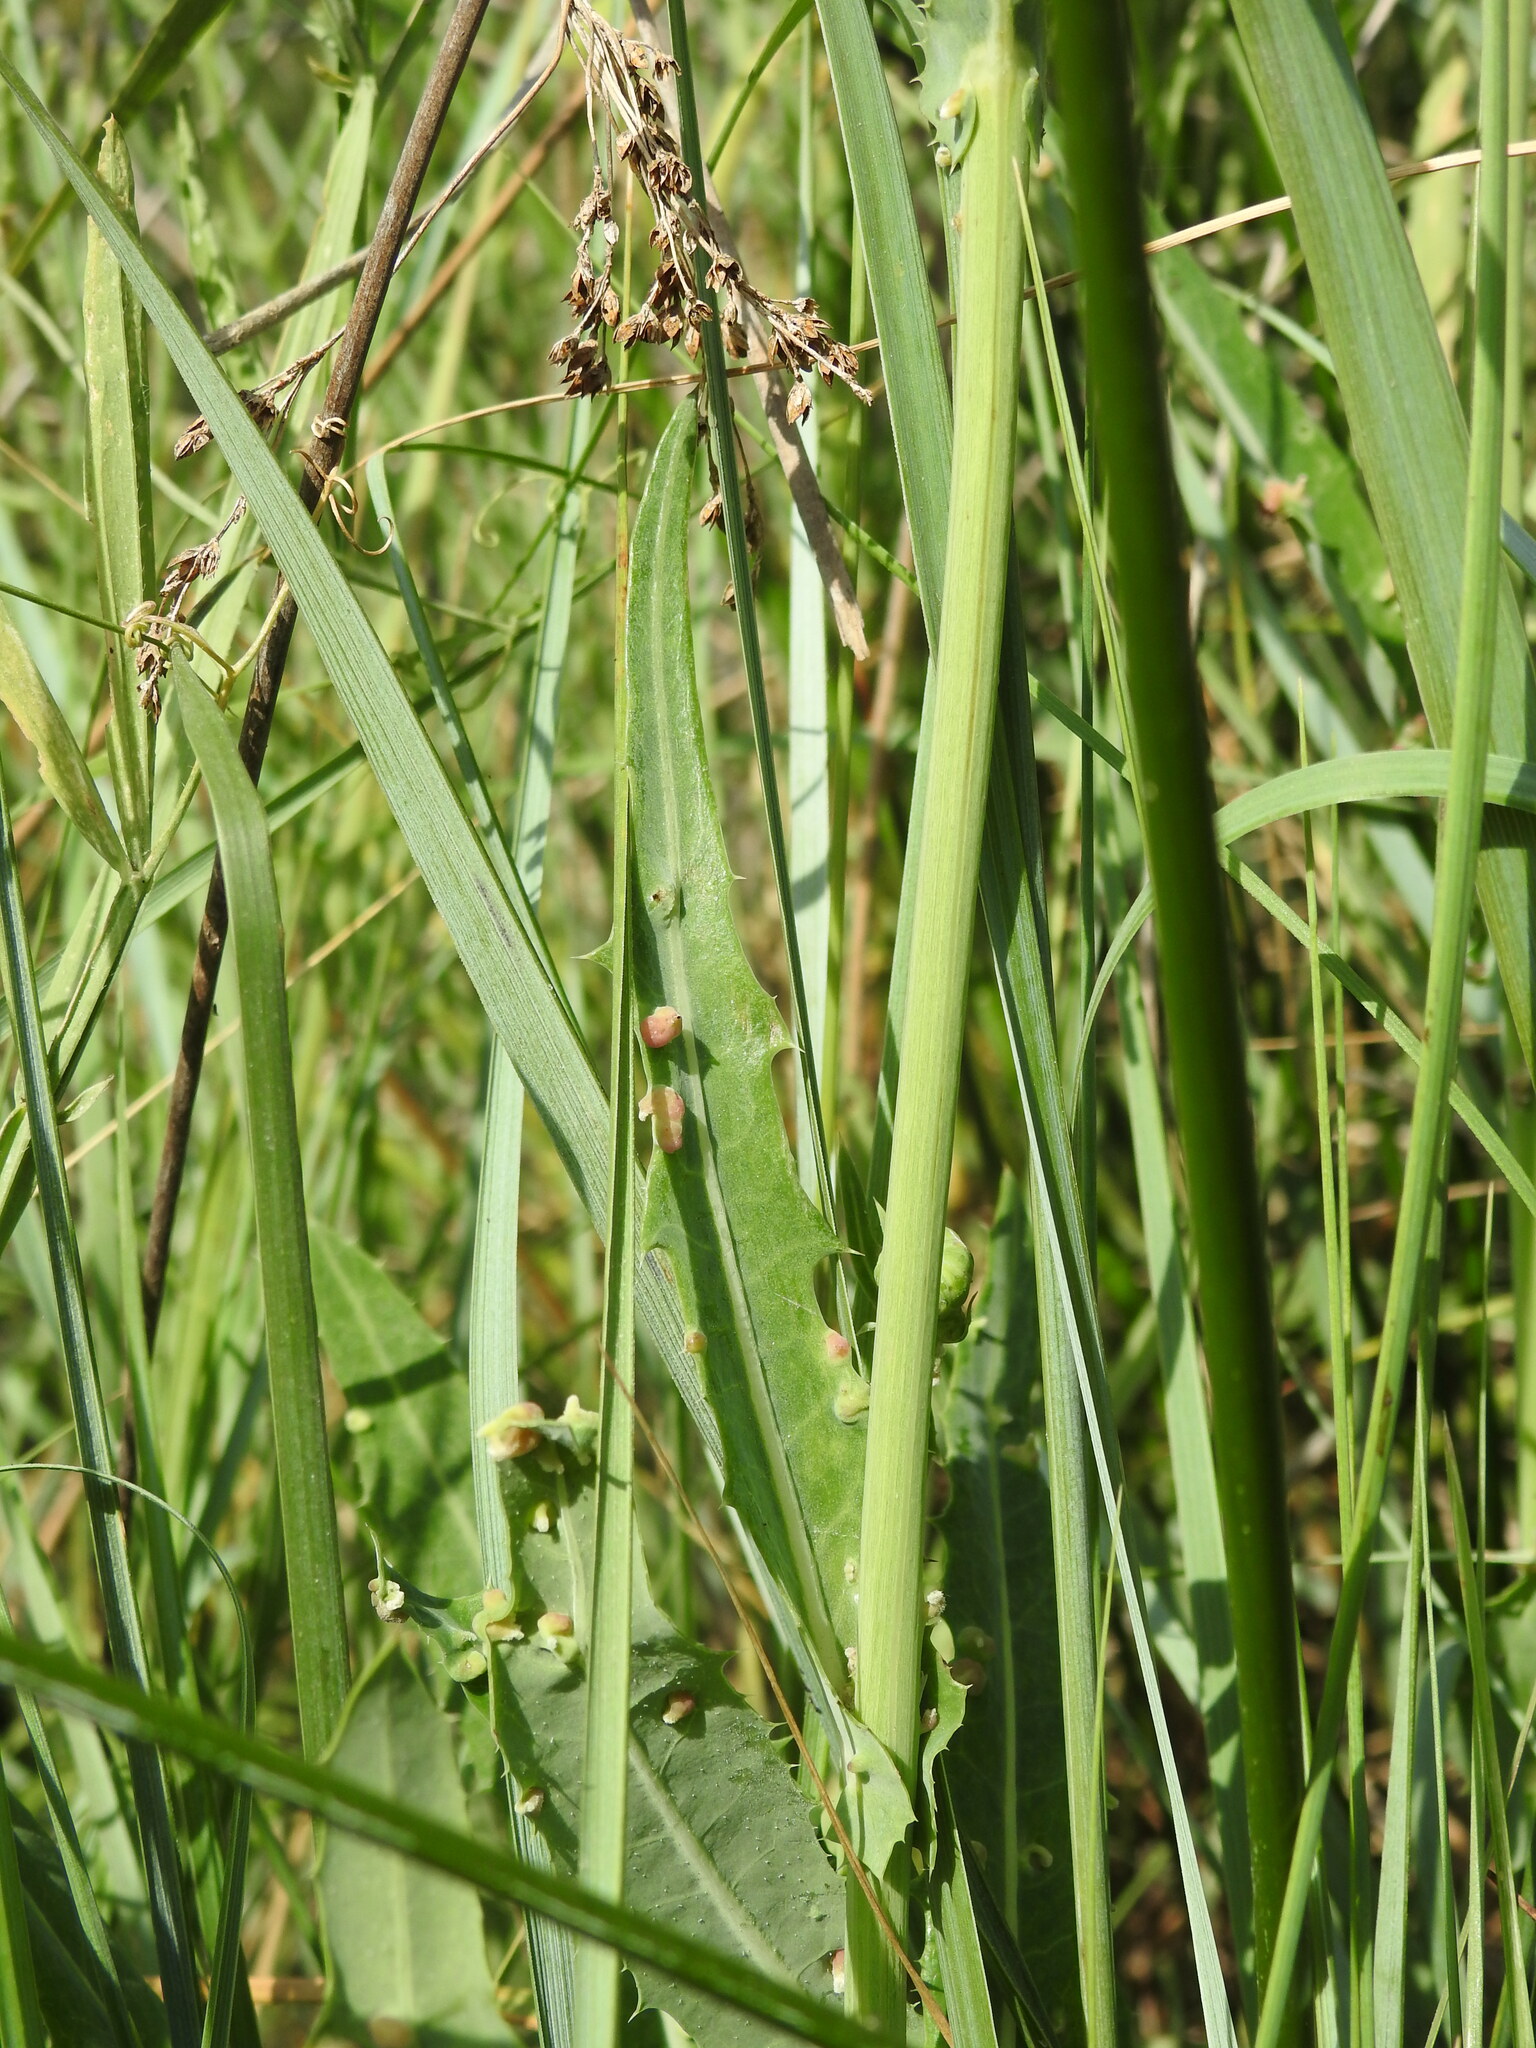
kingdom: Plantae
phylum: Tracheophyta
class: Magnoliopsida
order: Asterales
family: Asteraceae
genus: Sonchus
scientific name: Sonchus maritimus
